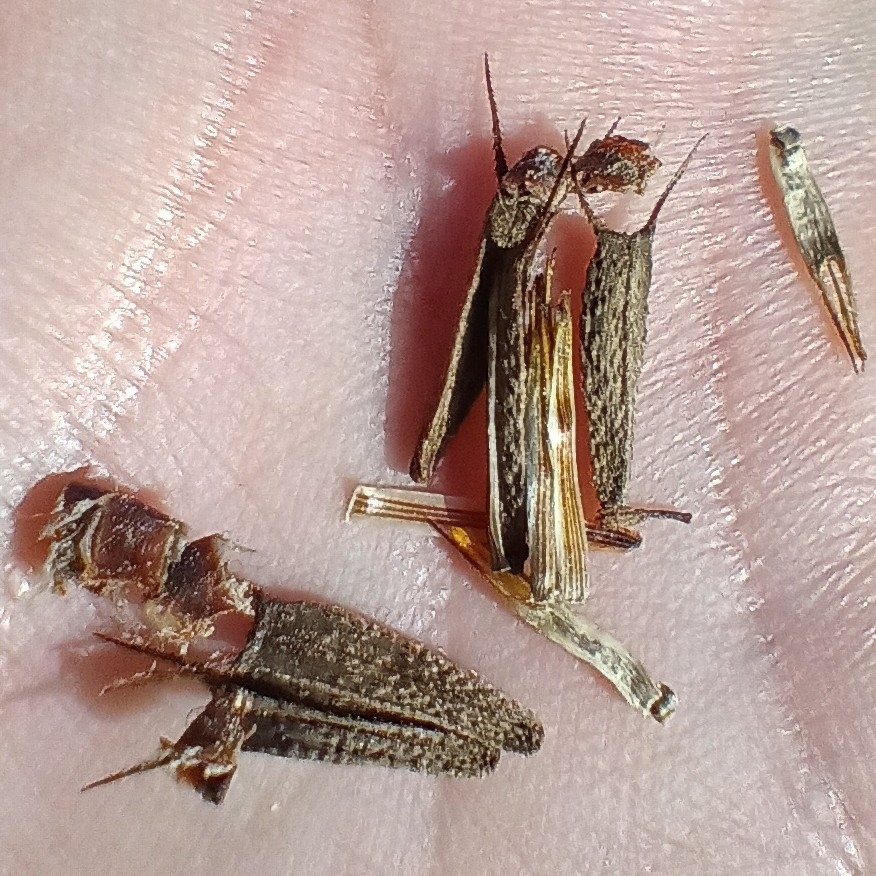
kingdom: Plantae
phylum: Tracheophyta
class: Magnoliopsida
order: Asterales
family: Asteraceae
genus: Bidens
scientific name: Bidens frondosa
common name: Beggarticks
